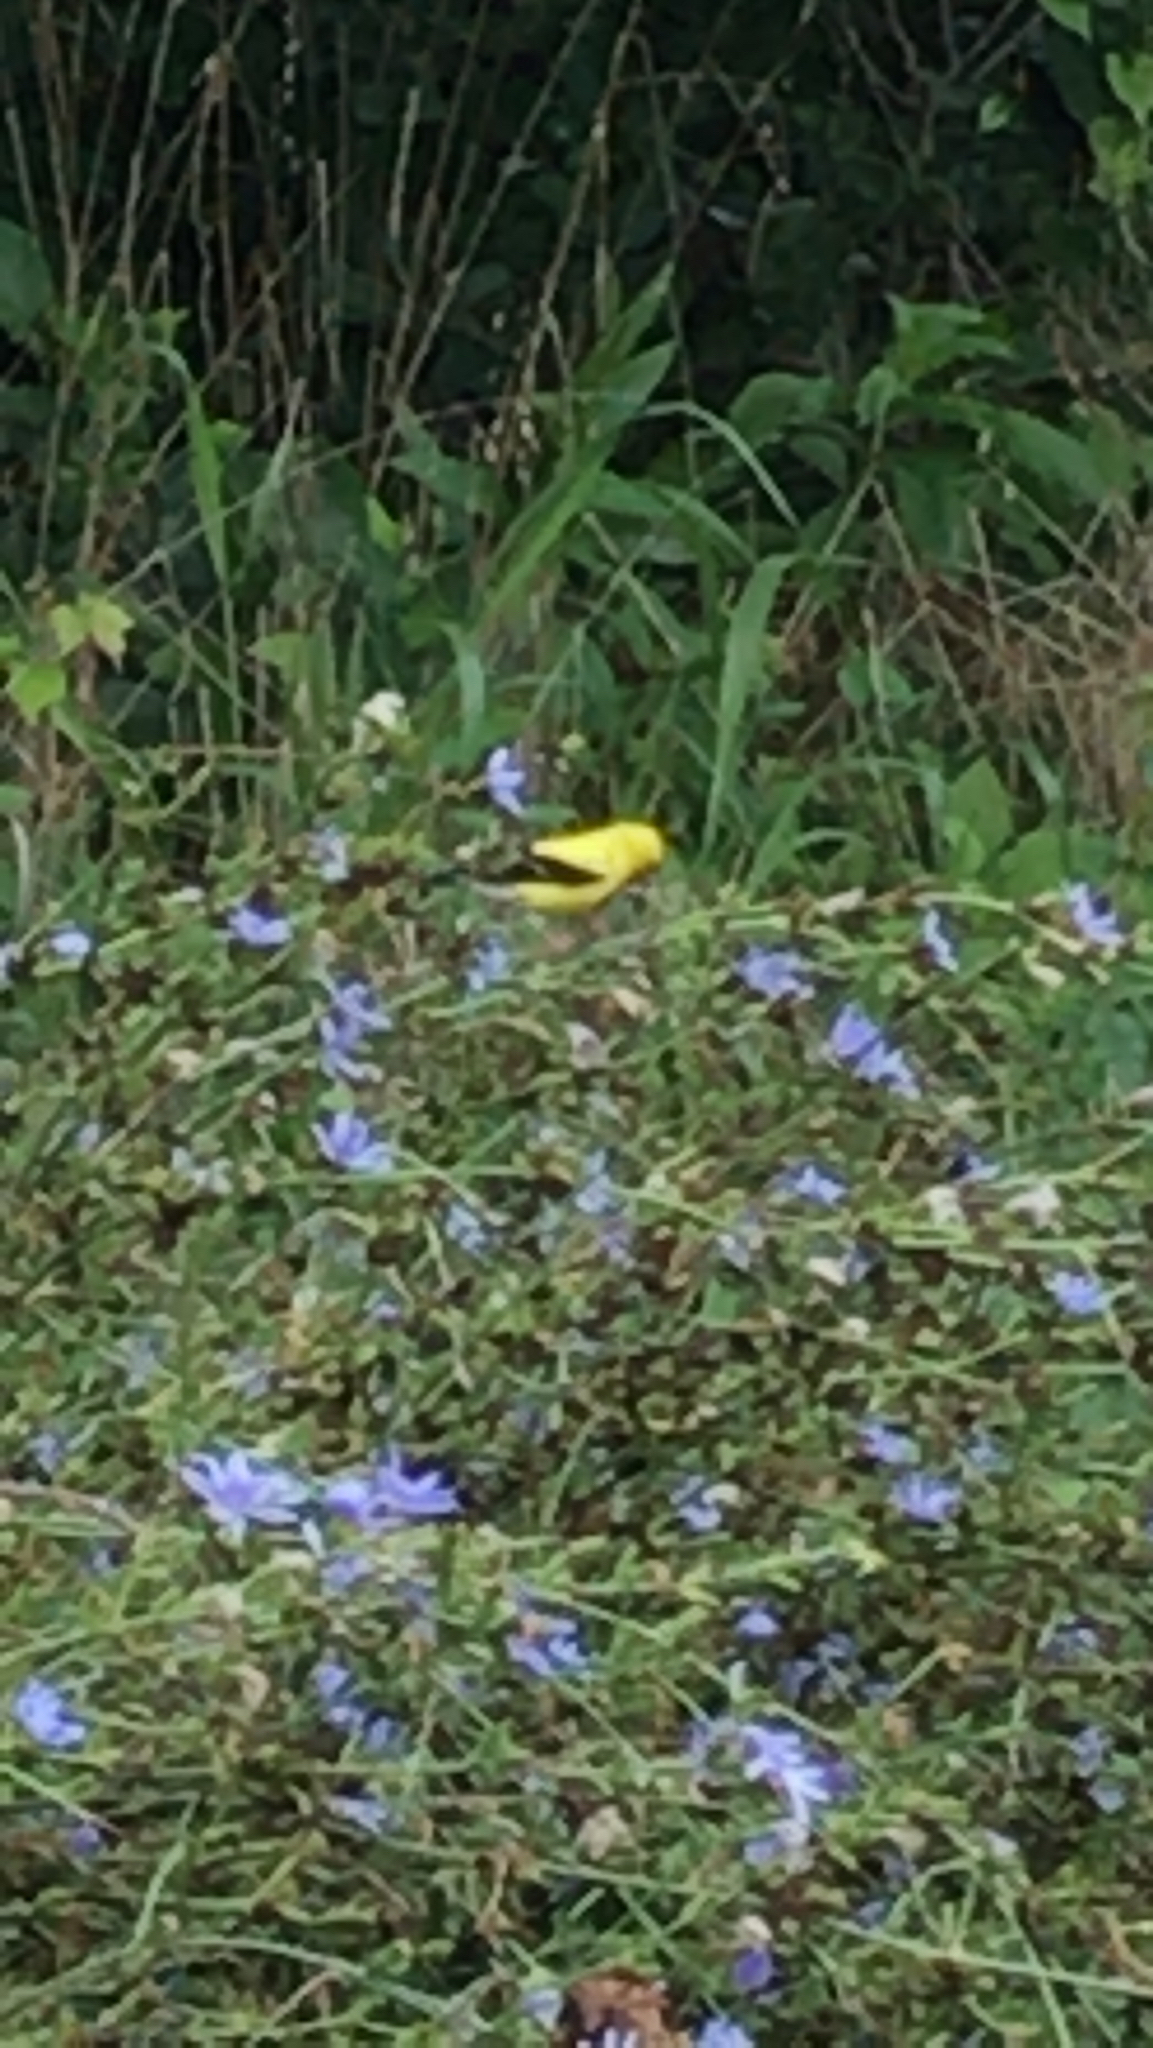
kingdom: Animalia
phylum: Chordata
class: Aves
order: Passeriformes
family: Fringillidae
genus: Spinus
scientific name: Spinus tristis
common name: American goldfinch
